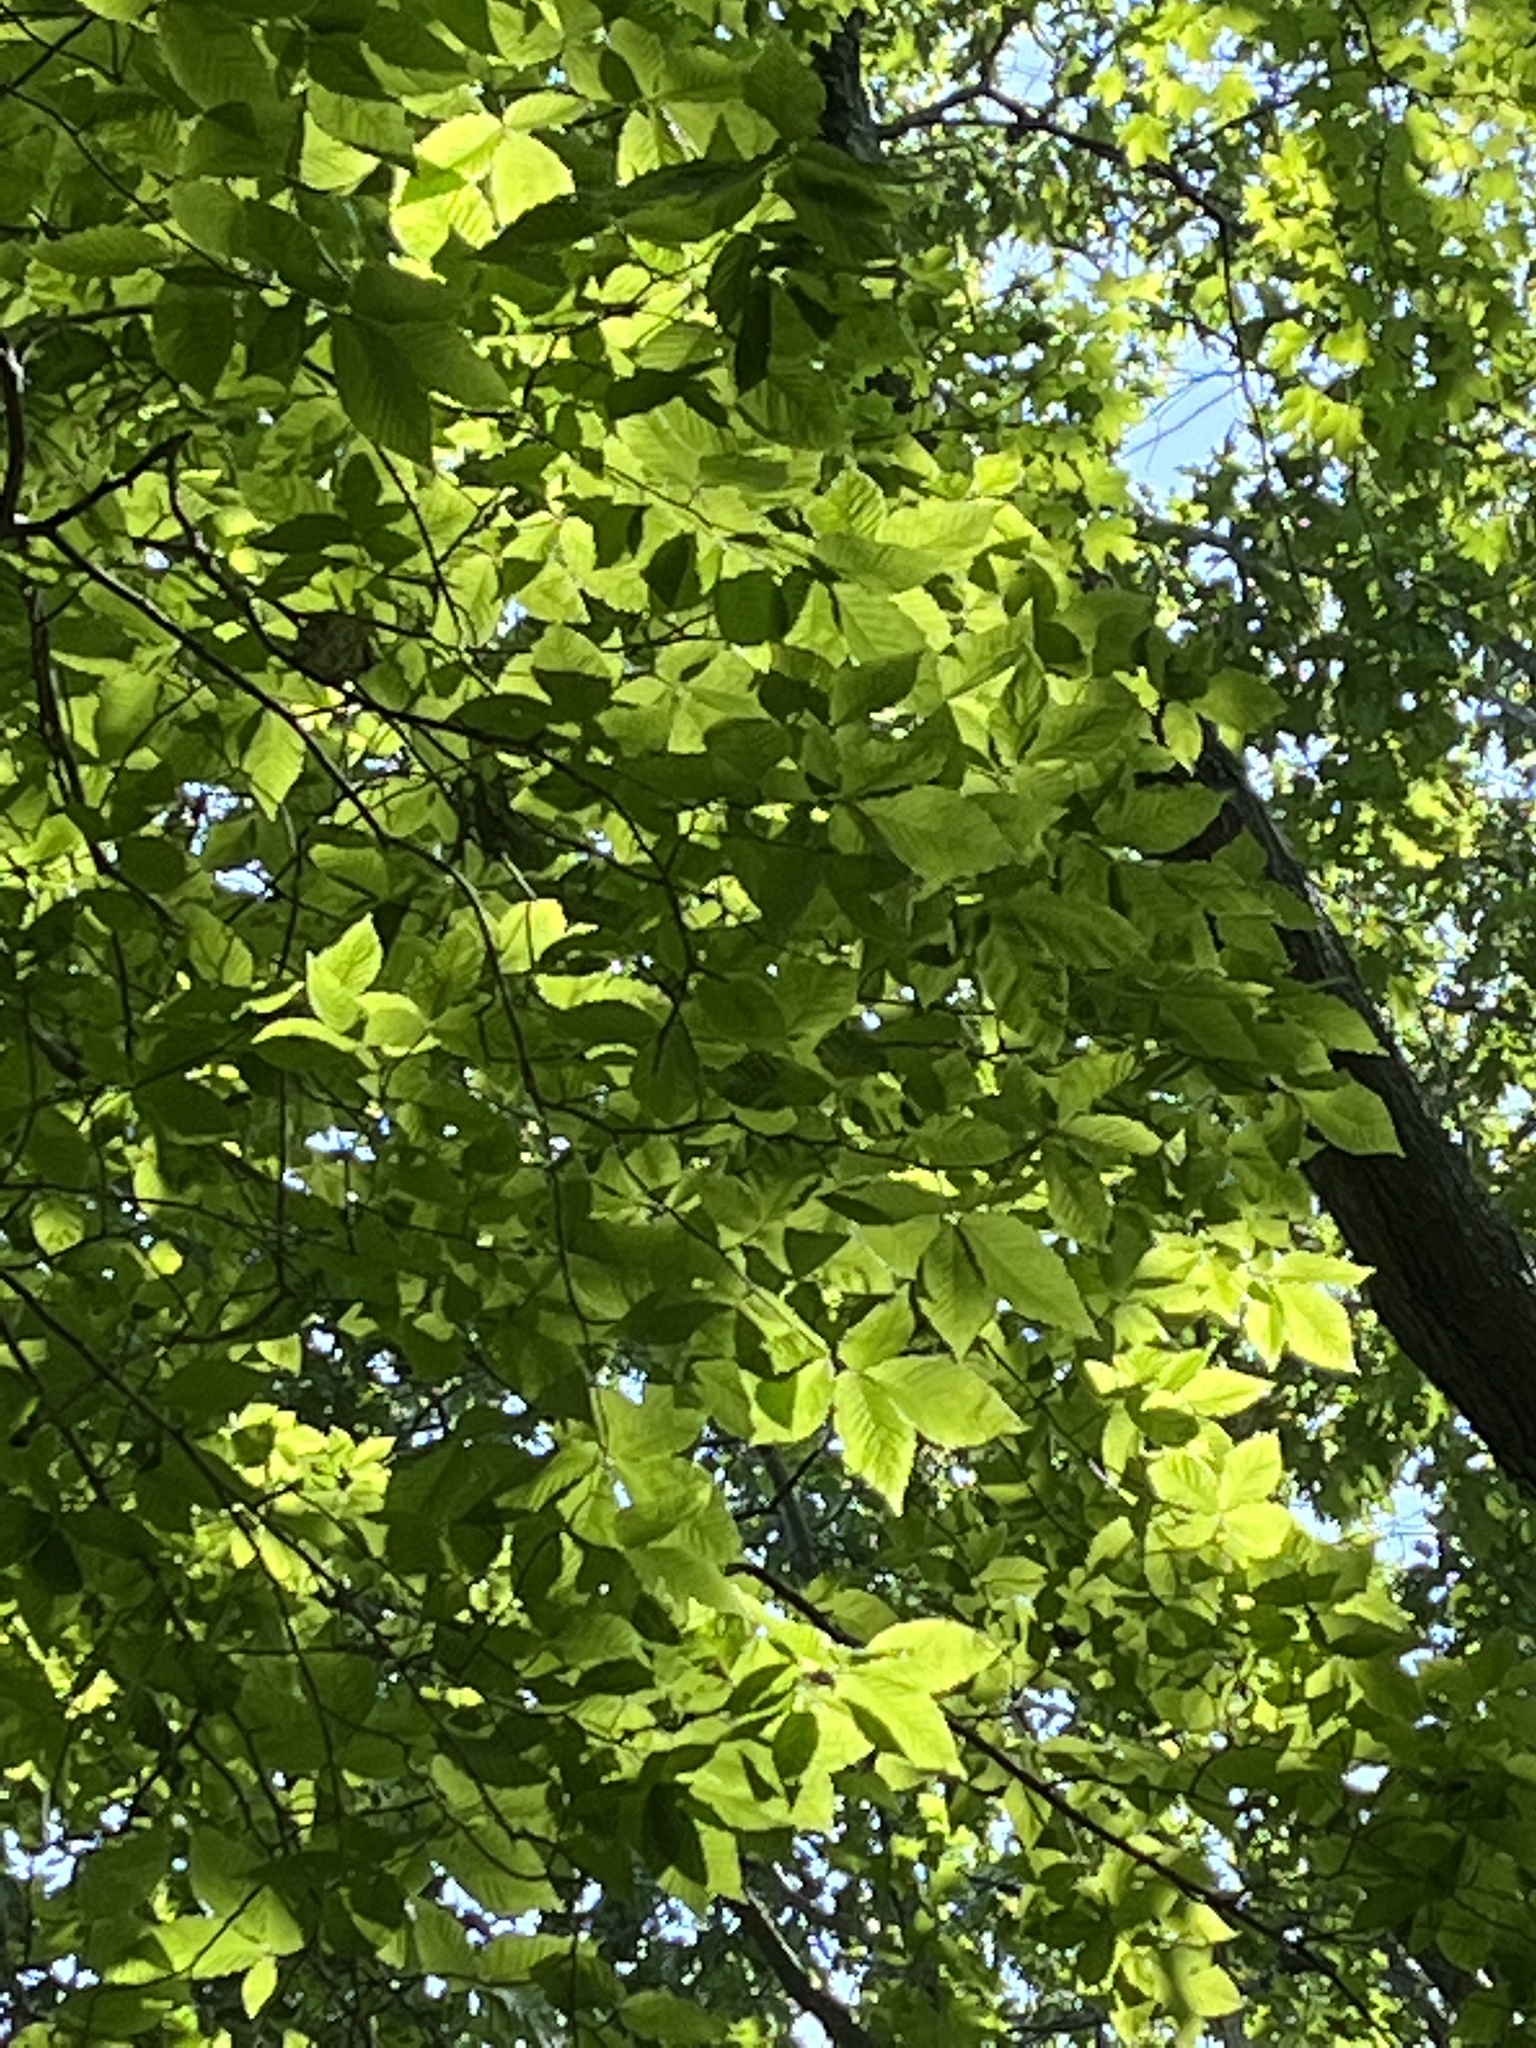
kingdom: Animalia
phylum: Nematoda
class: Chromadorea
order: Rhabditida
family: Anguinidae
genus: Litylenchus
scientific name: Litylenchus crenatae
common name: Beech leaf disease
